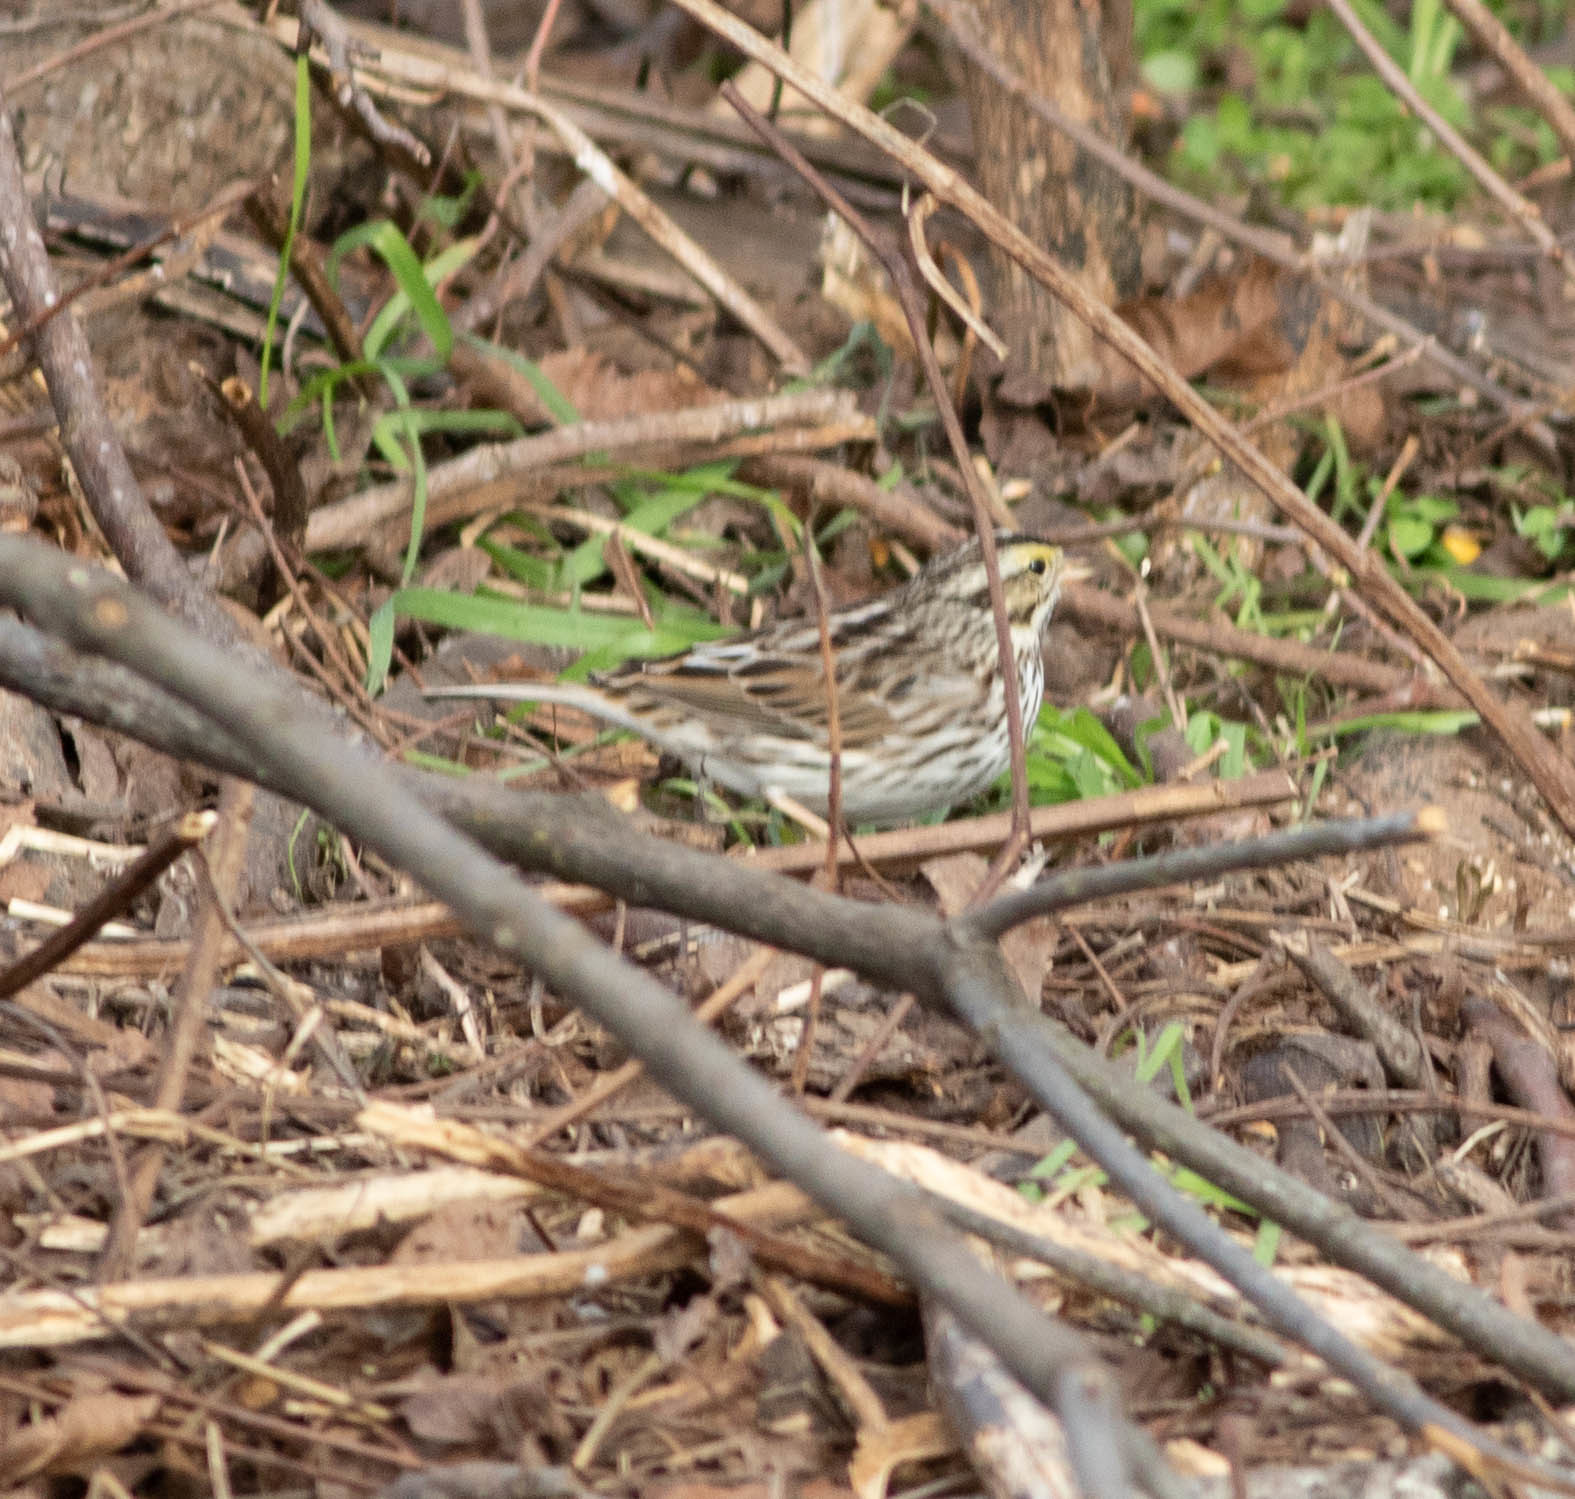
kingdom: Animalia
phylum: Chordata
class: Aves
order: Passeriformes
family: Passerellidae
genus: Passerculus
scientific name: Passerculus sandwichensis
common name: Savannah sparrow
